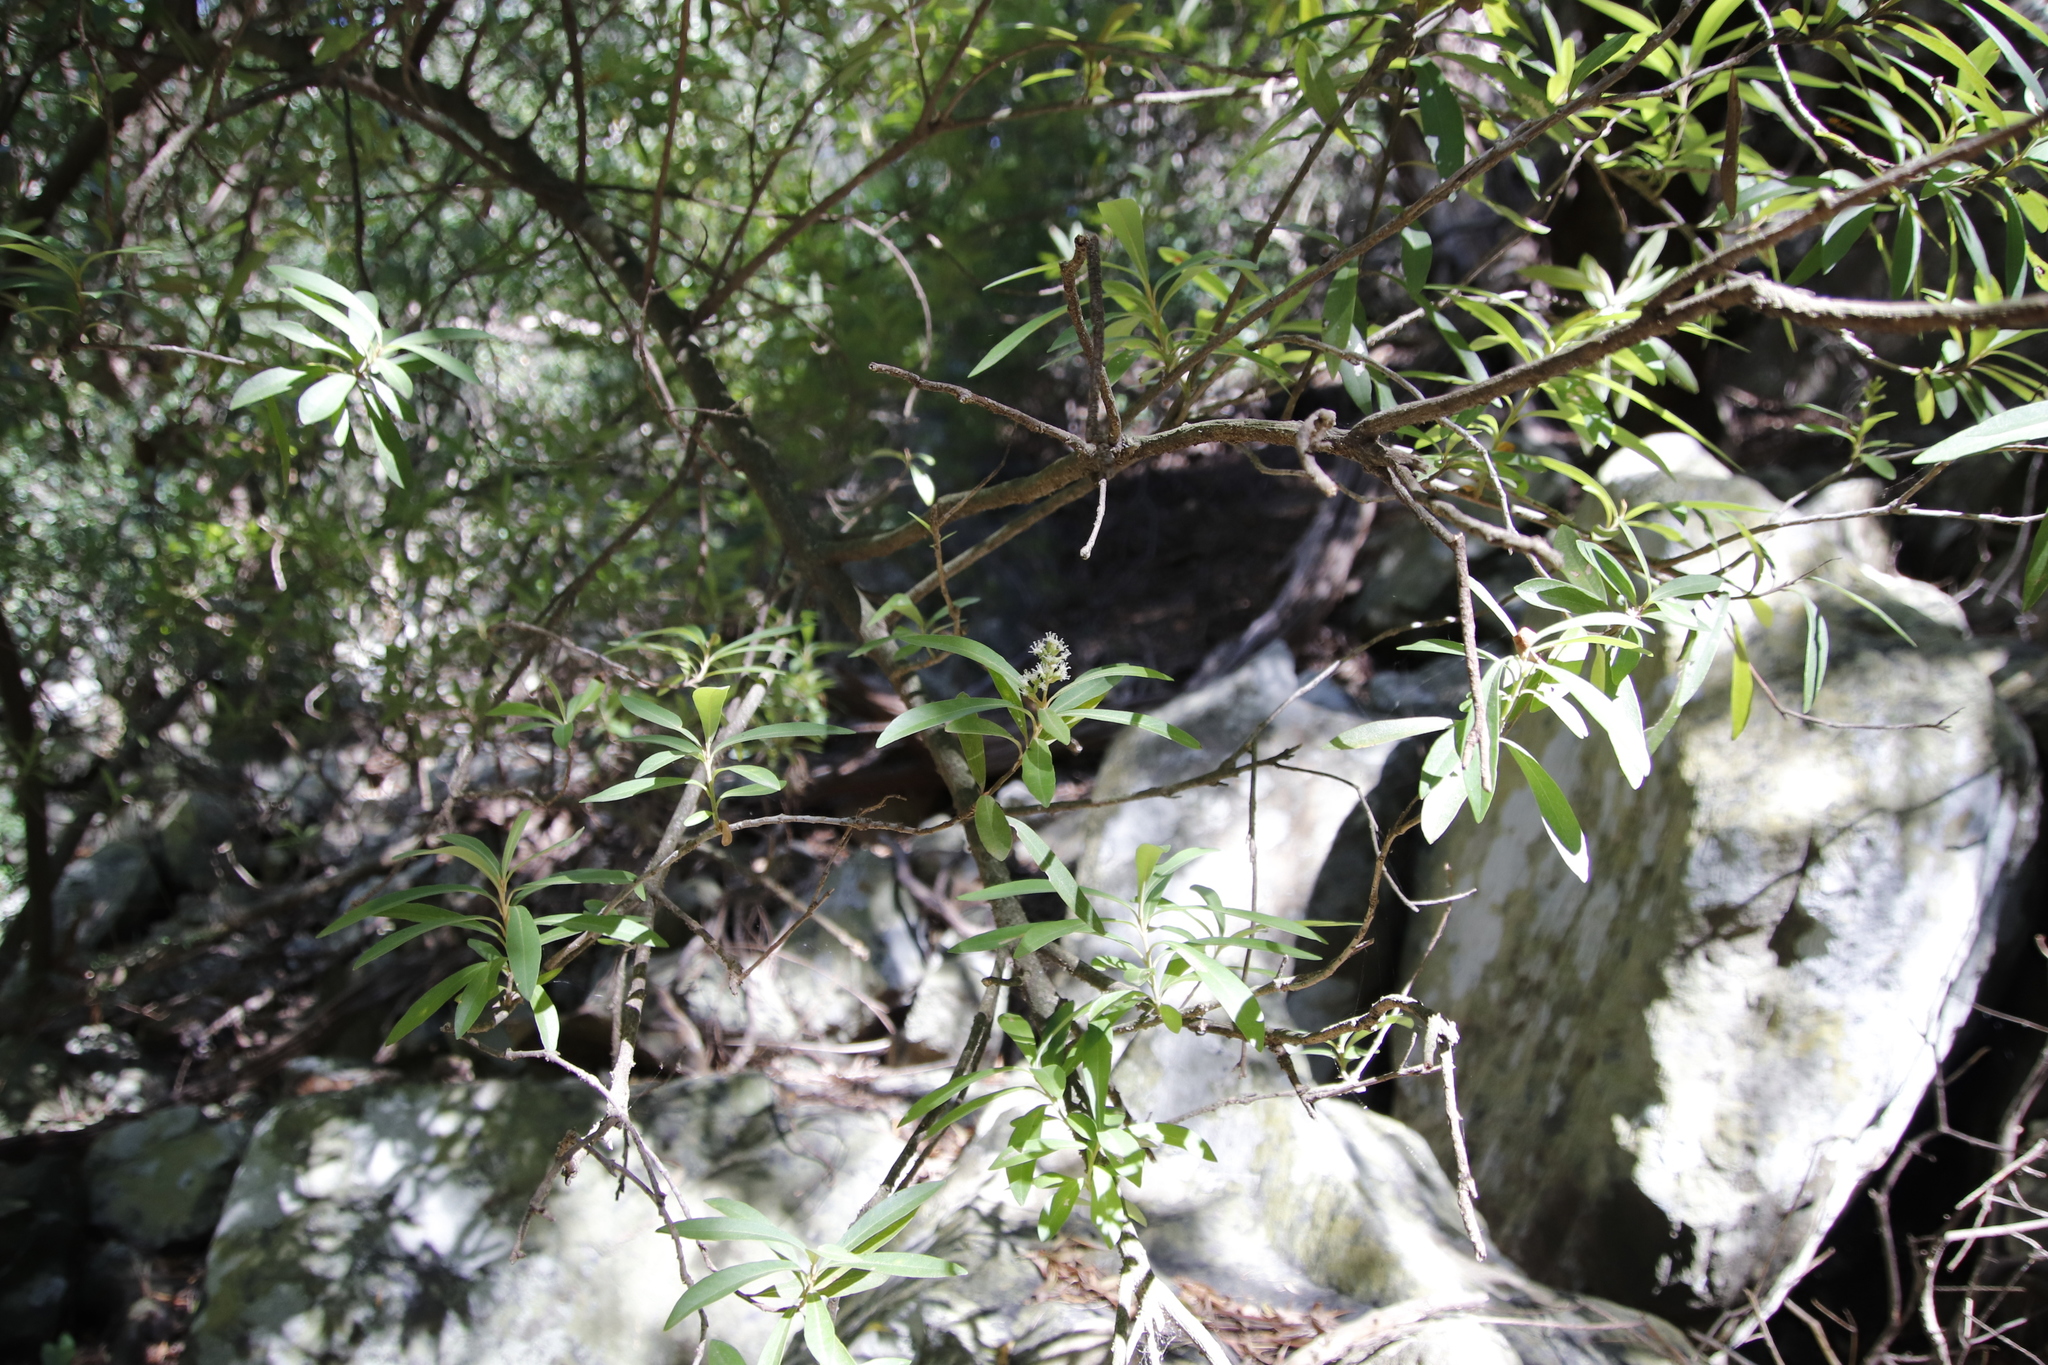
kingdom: Plantae
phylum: Tracheophyta
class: Magnoliopsida
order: Asterales
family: Asteraceae
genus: Brachylaena
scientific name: Brachylaena neriifolia
